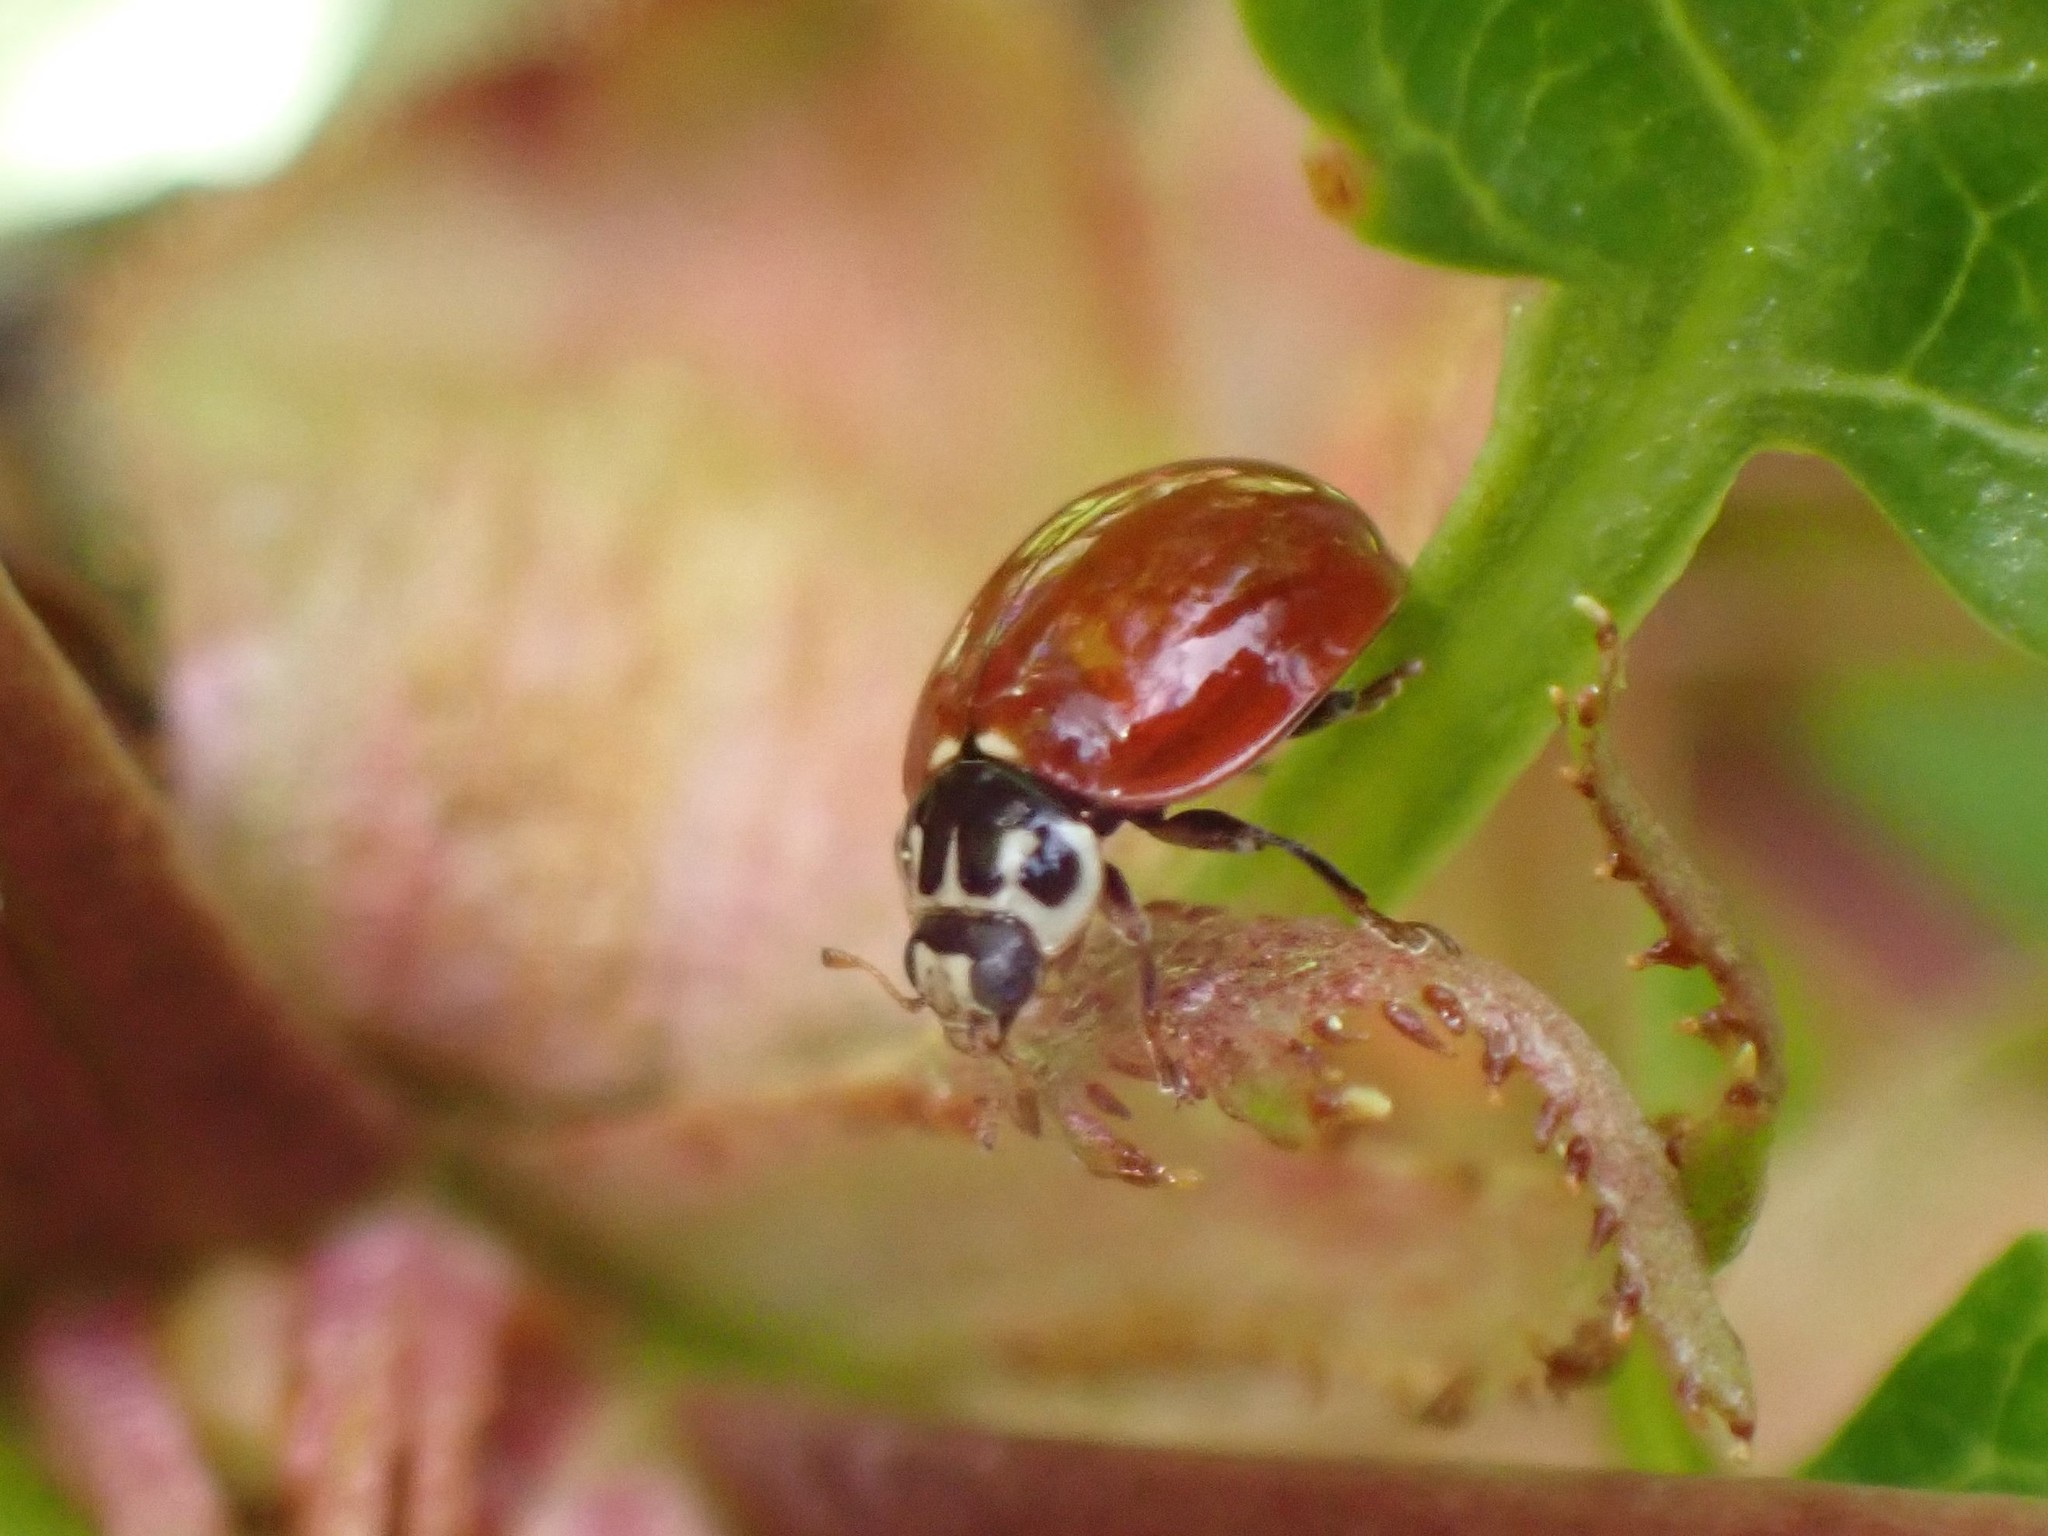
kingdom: Animalia
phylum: Arthropoda
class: Insecta
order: Coleoptera
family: Coccinellidae
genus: Cycloneda
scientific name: Cycloneda polita
